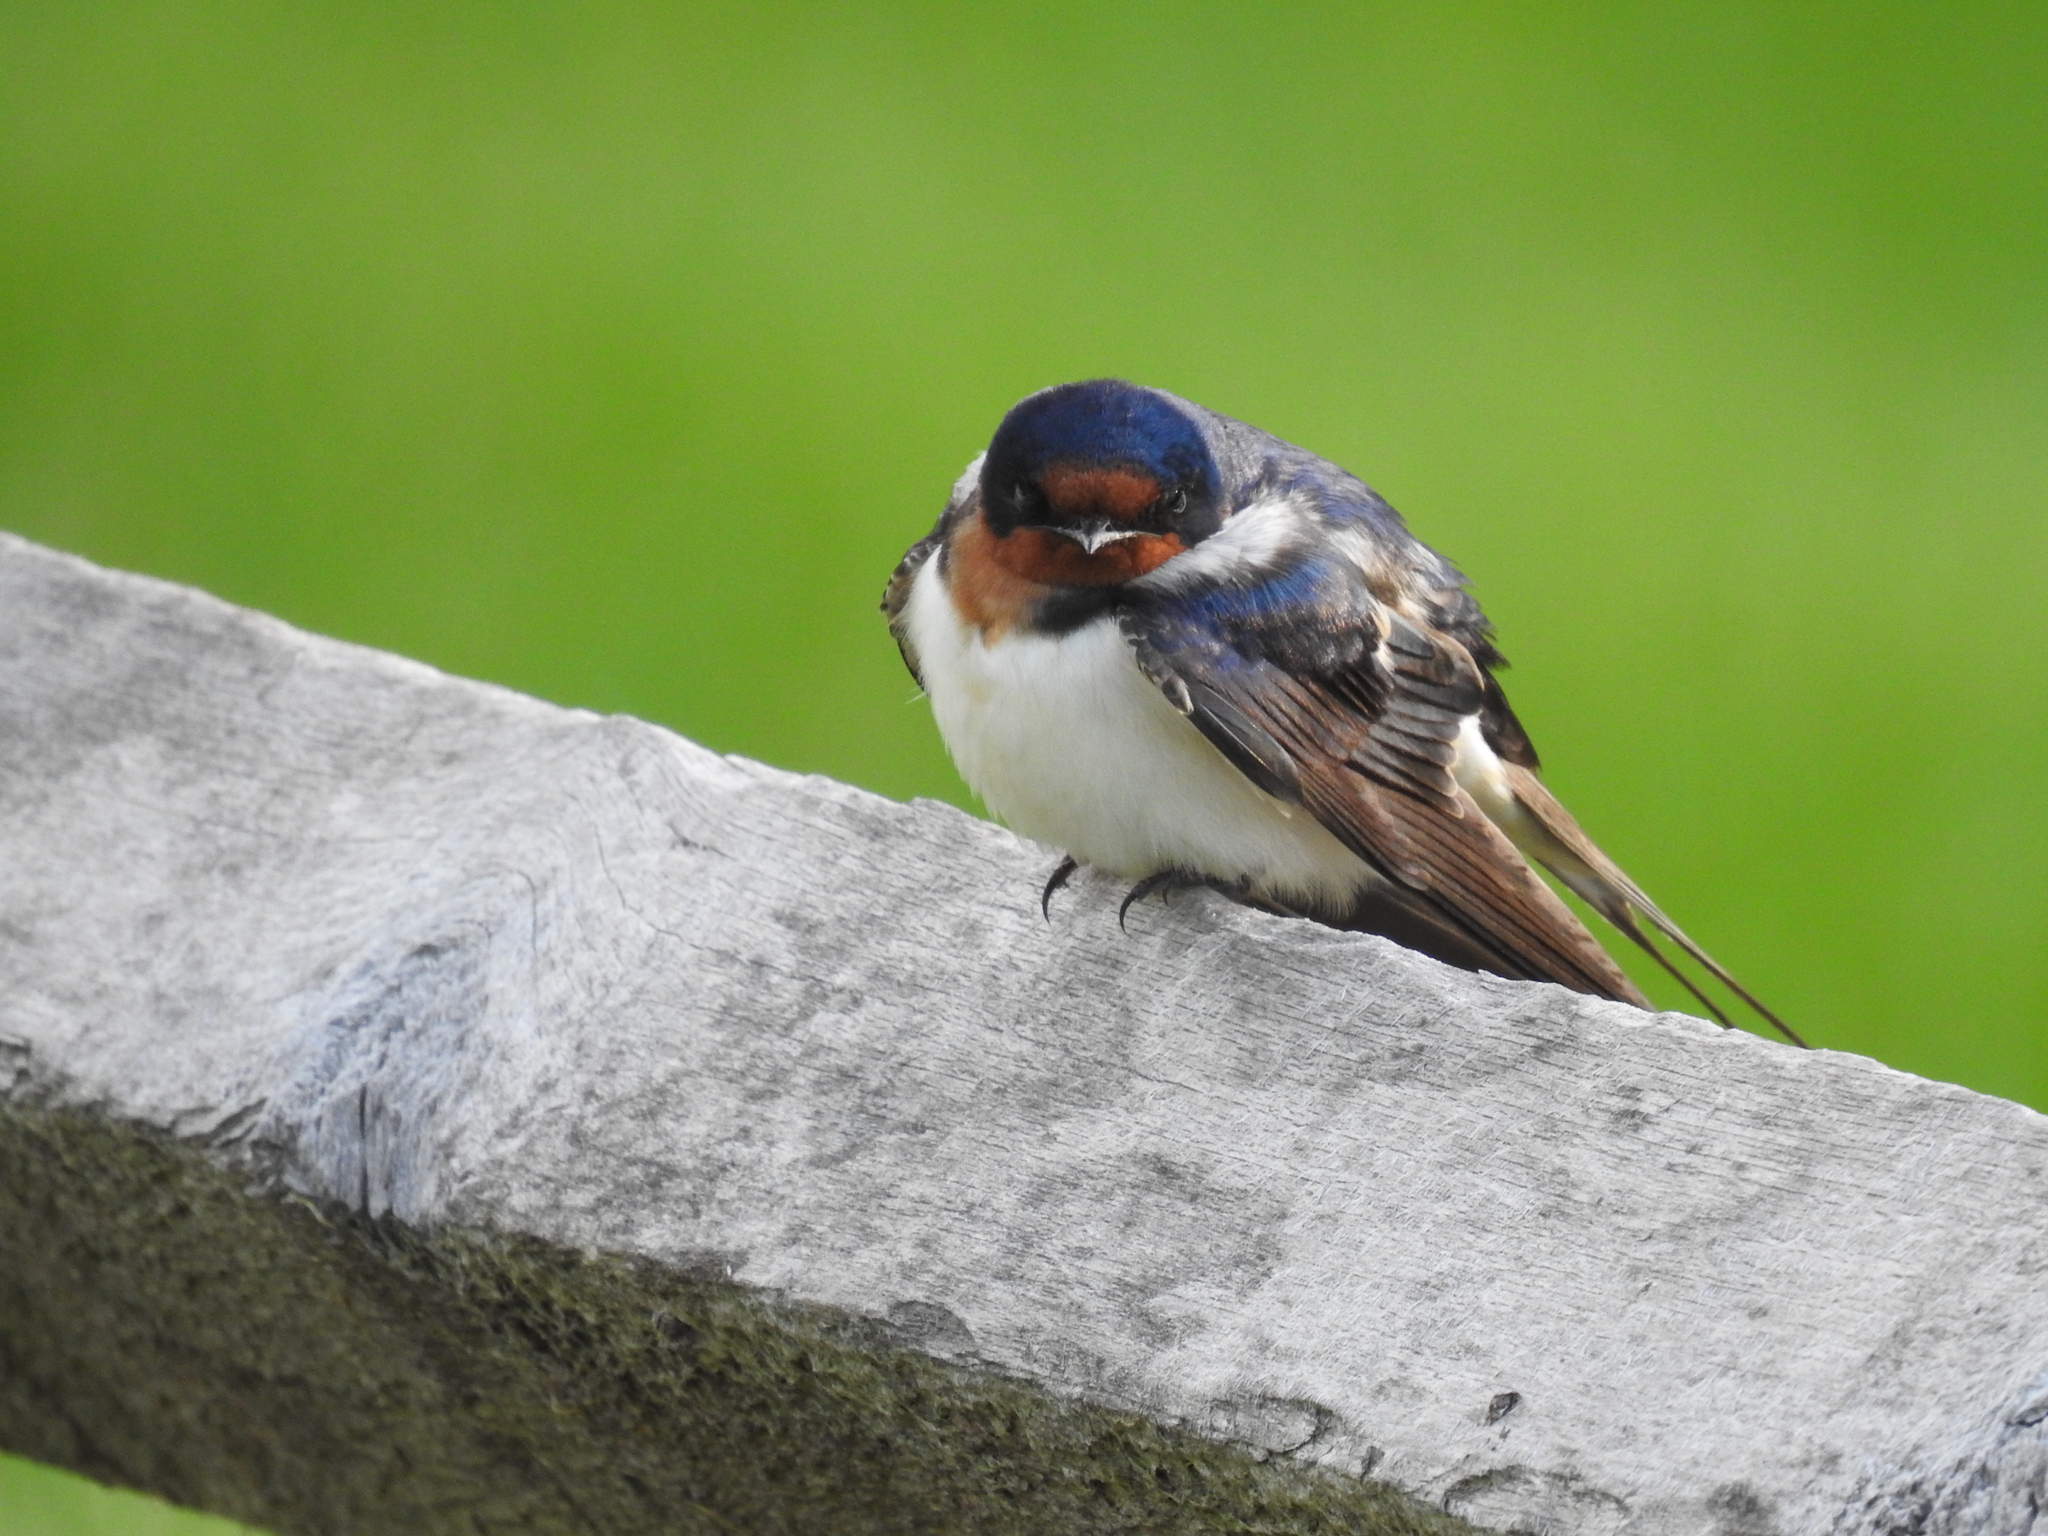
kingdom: Animalia
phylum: Chordata
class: Aves
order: Passeriformes
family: Hirundinidae
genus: Hirundo
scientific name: Hirundo rustica
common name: Barn swallow
